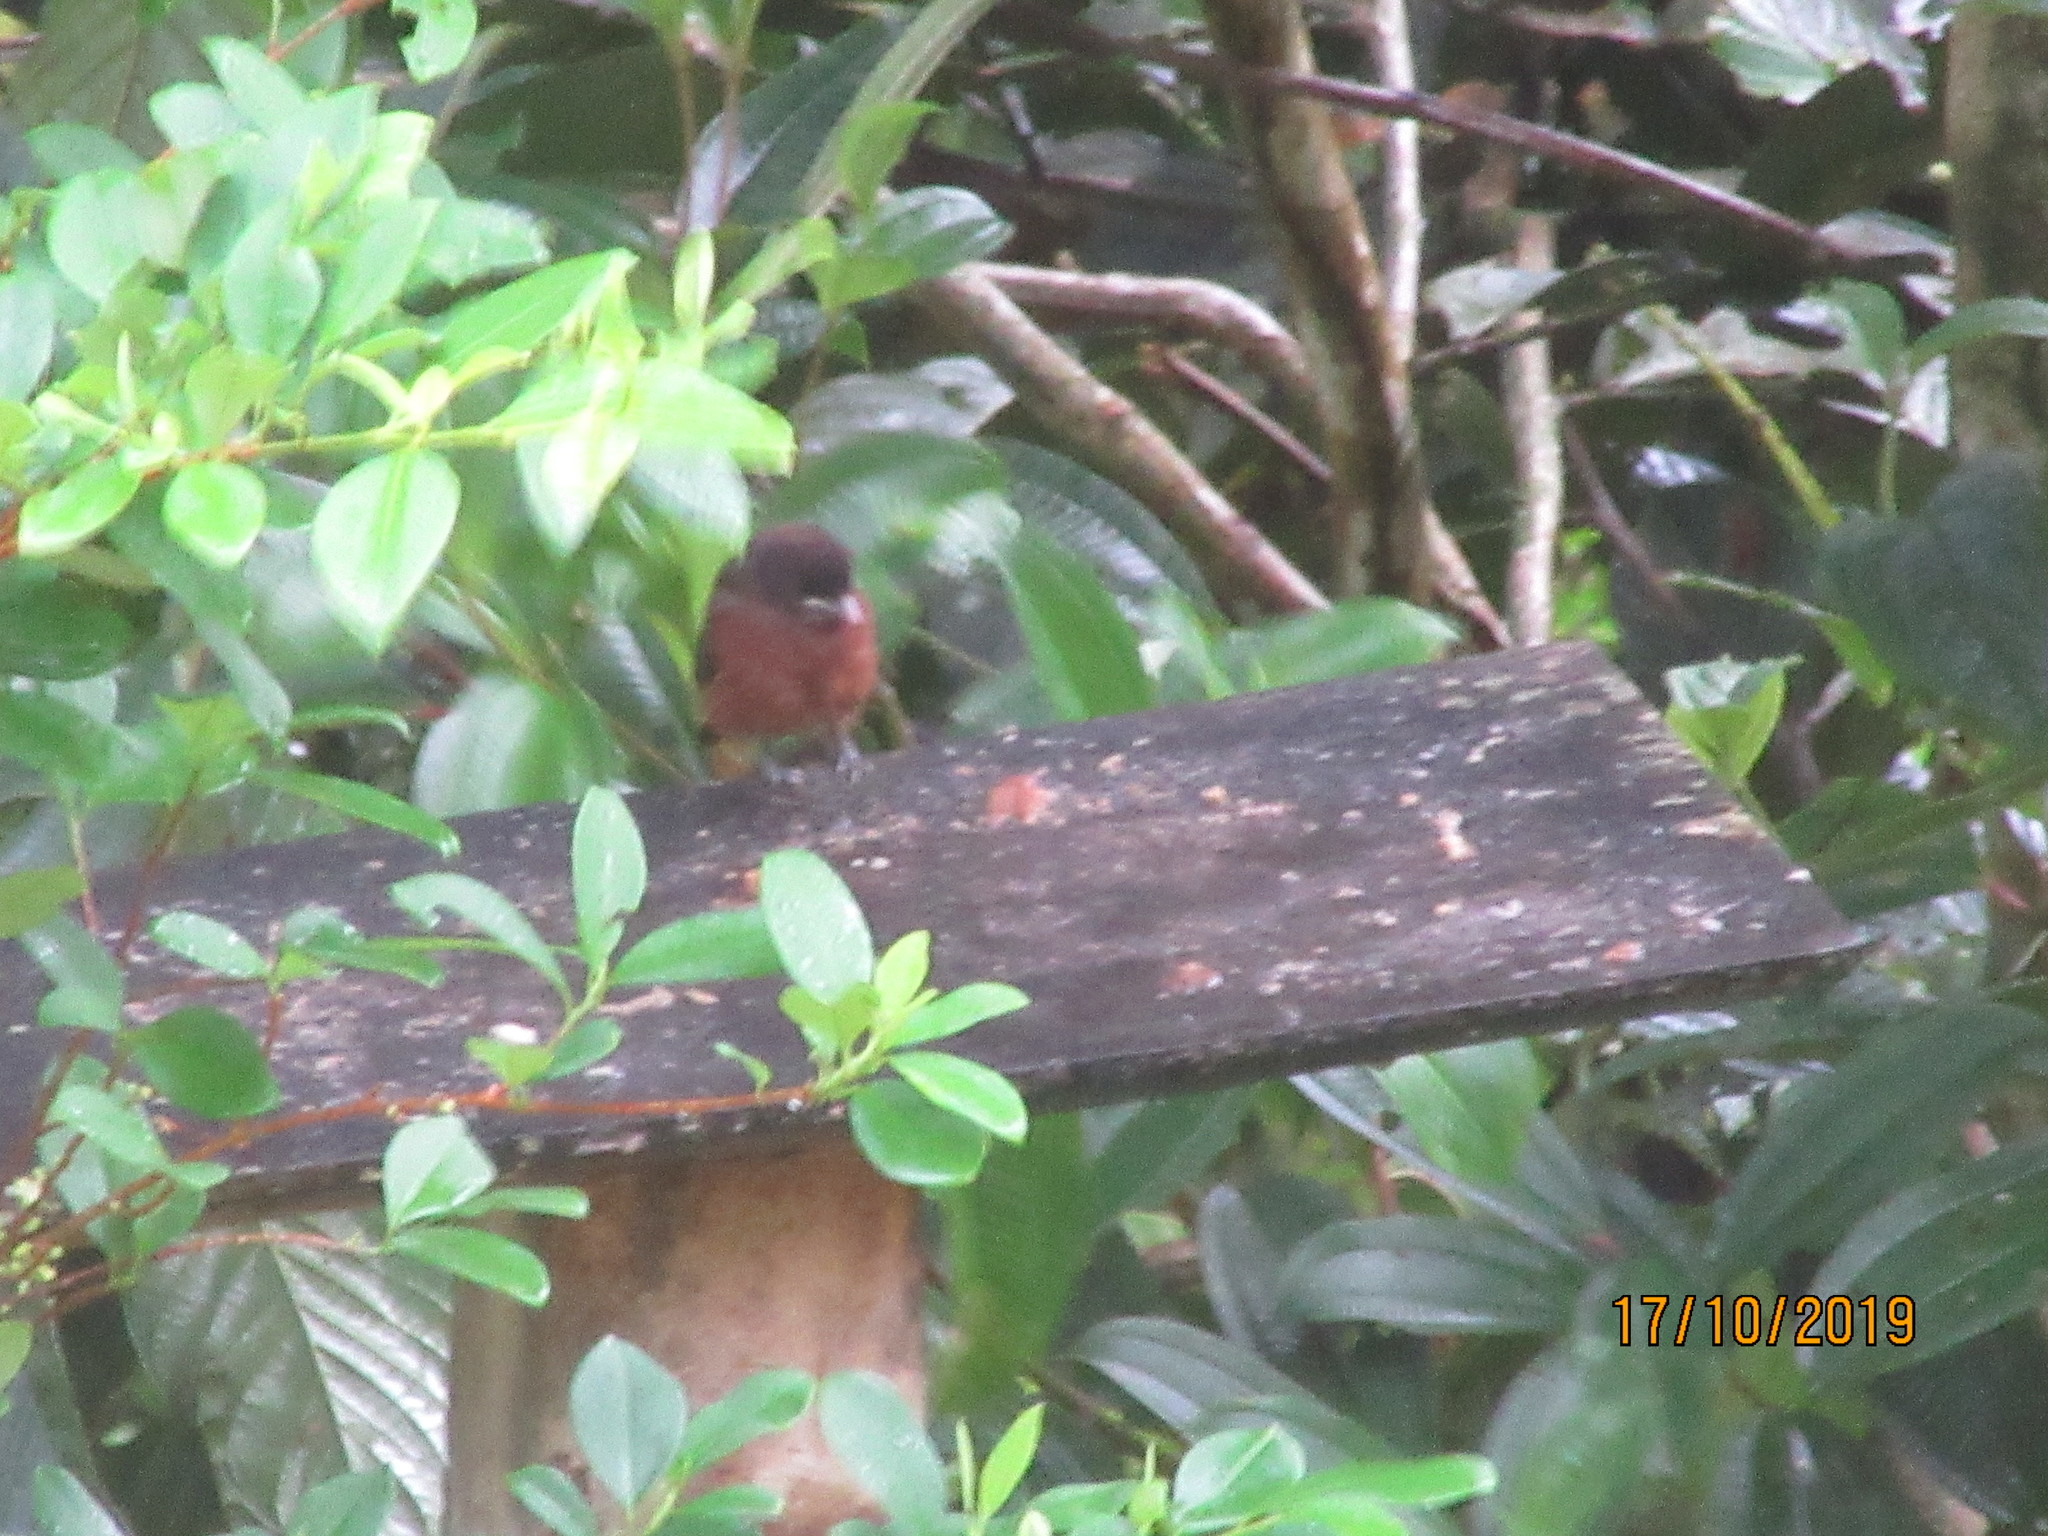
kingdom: Animalia
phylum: Chordata
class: Aves
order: Passeriformes
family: Thraupidae
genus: Ramphocelus
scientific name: Ramphocelus carbo
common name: Silver-beaked tanager
